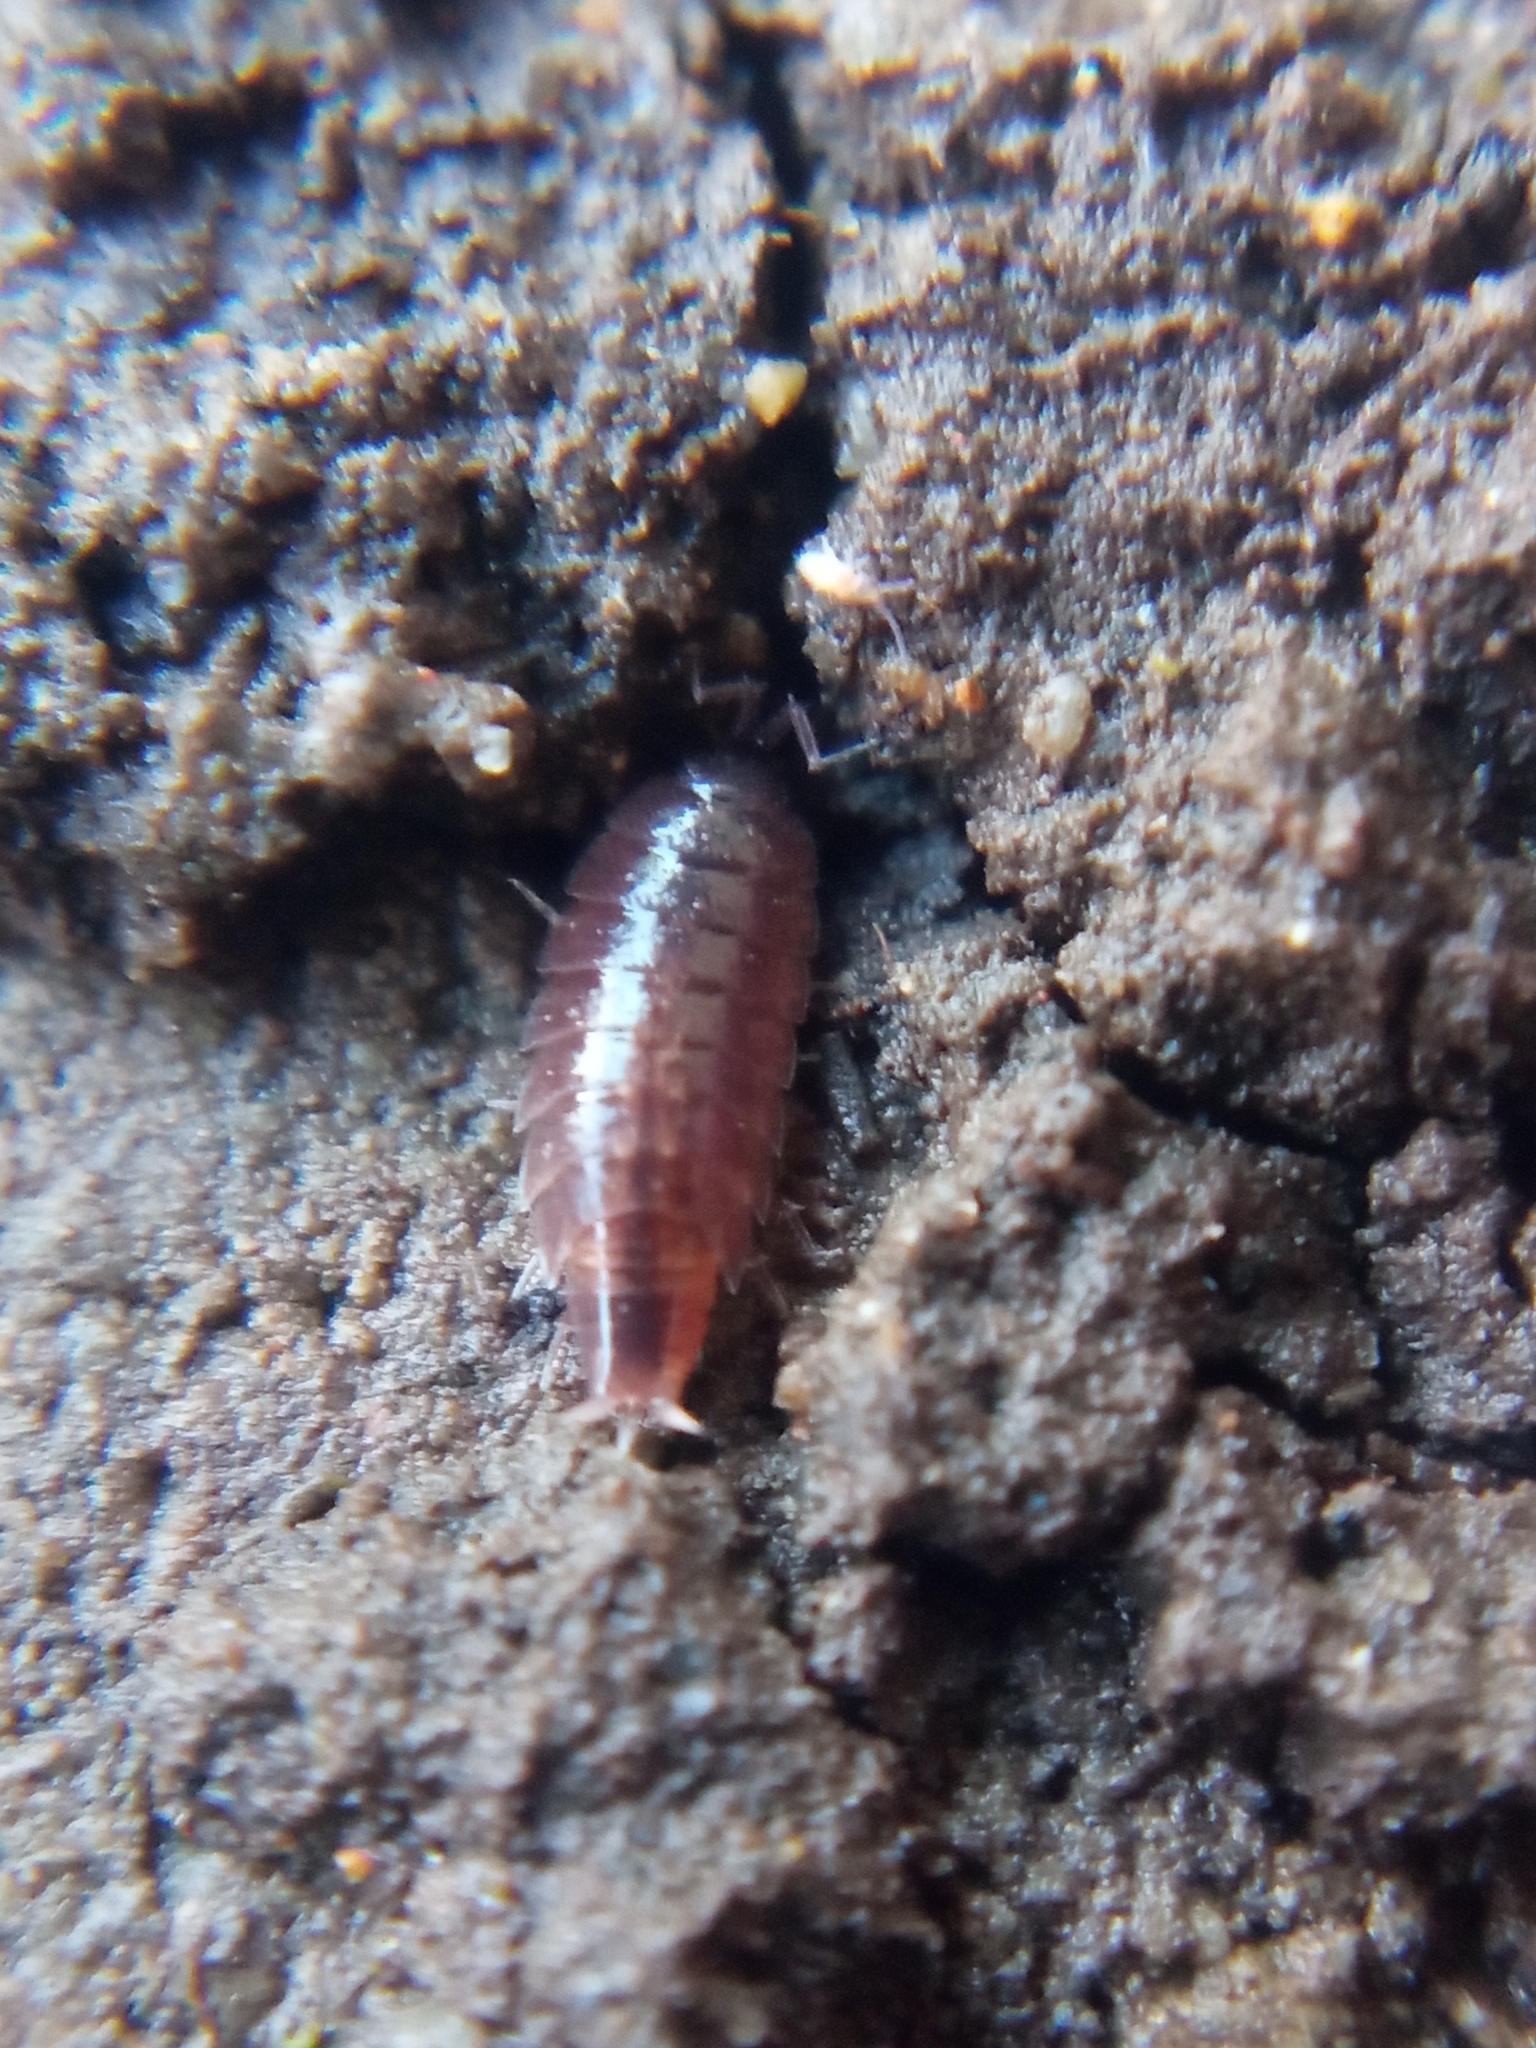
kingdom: Animalia
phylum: Arthropoda
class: Malacostraca
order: Isopoda
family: Trichoniscidae
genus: Hyloniscus
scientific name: Hyloniscus riparius
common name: Isopod
